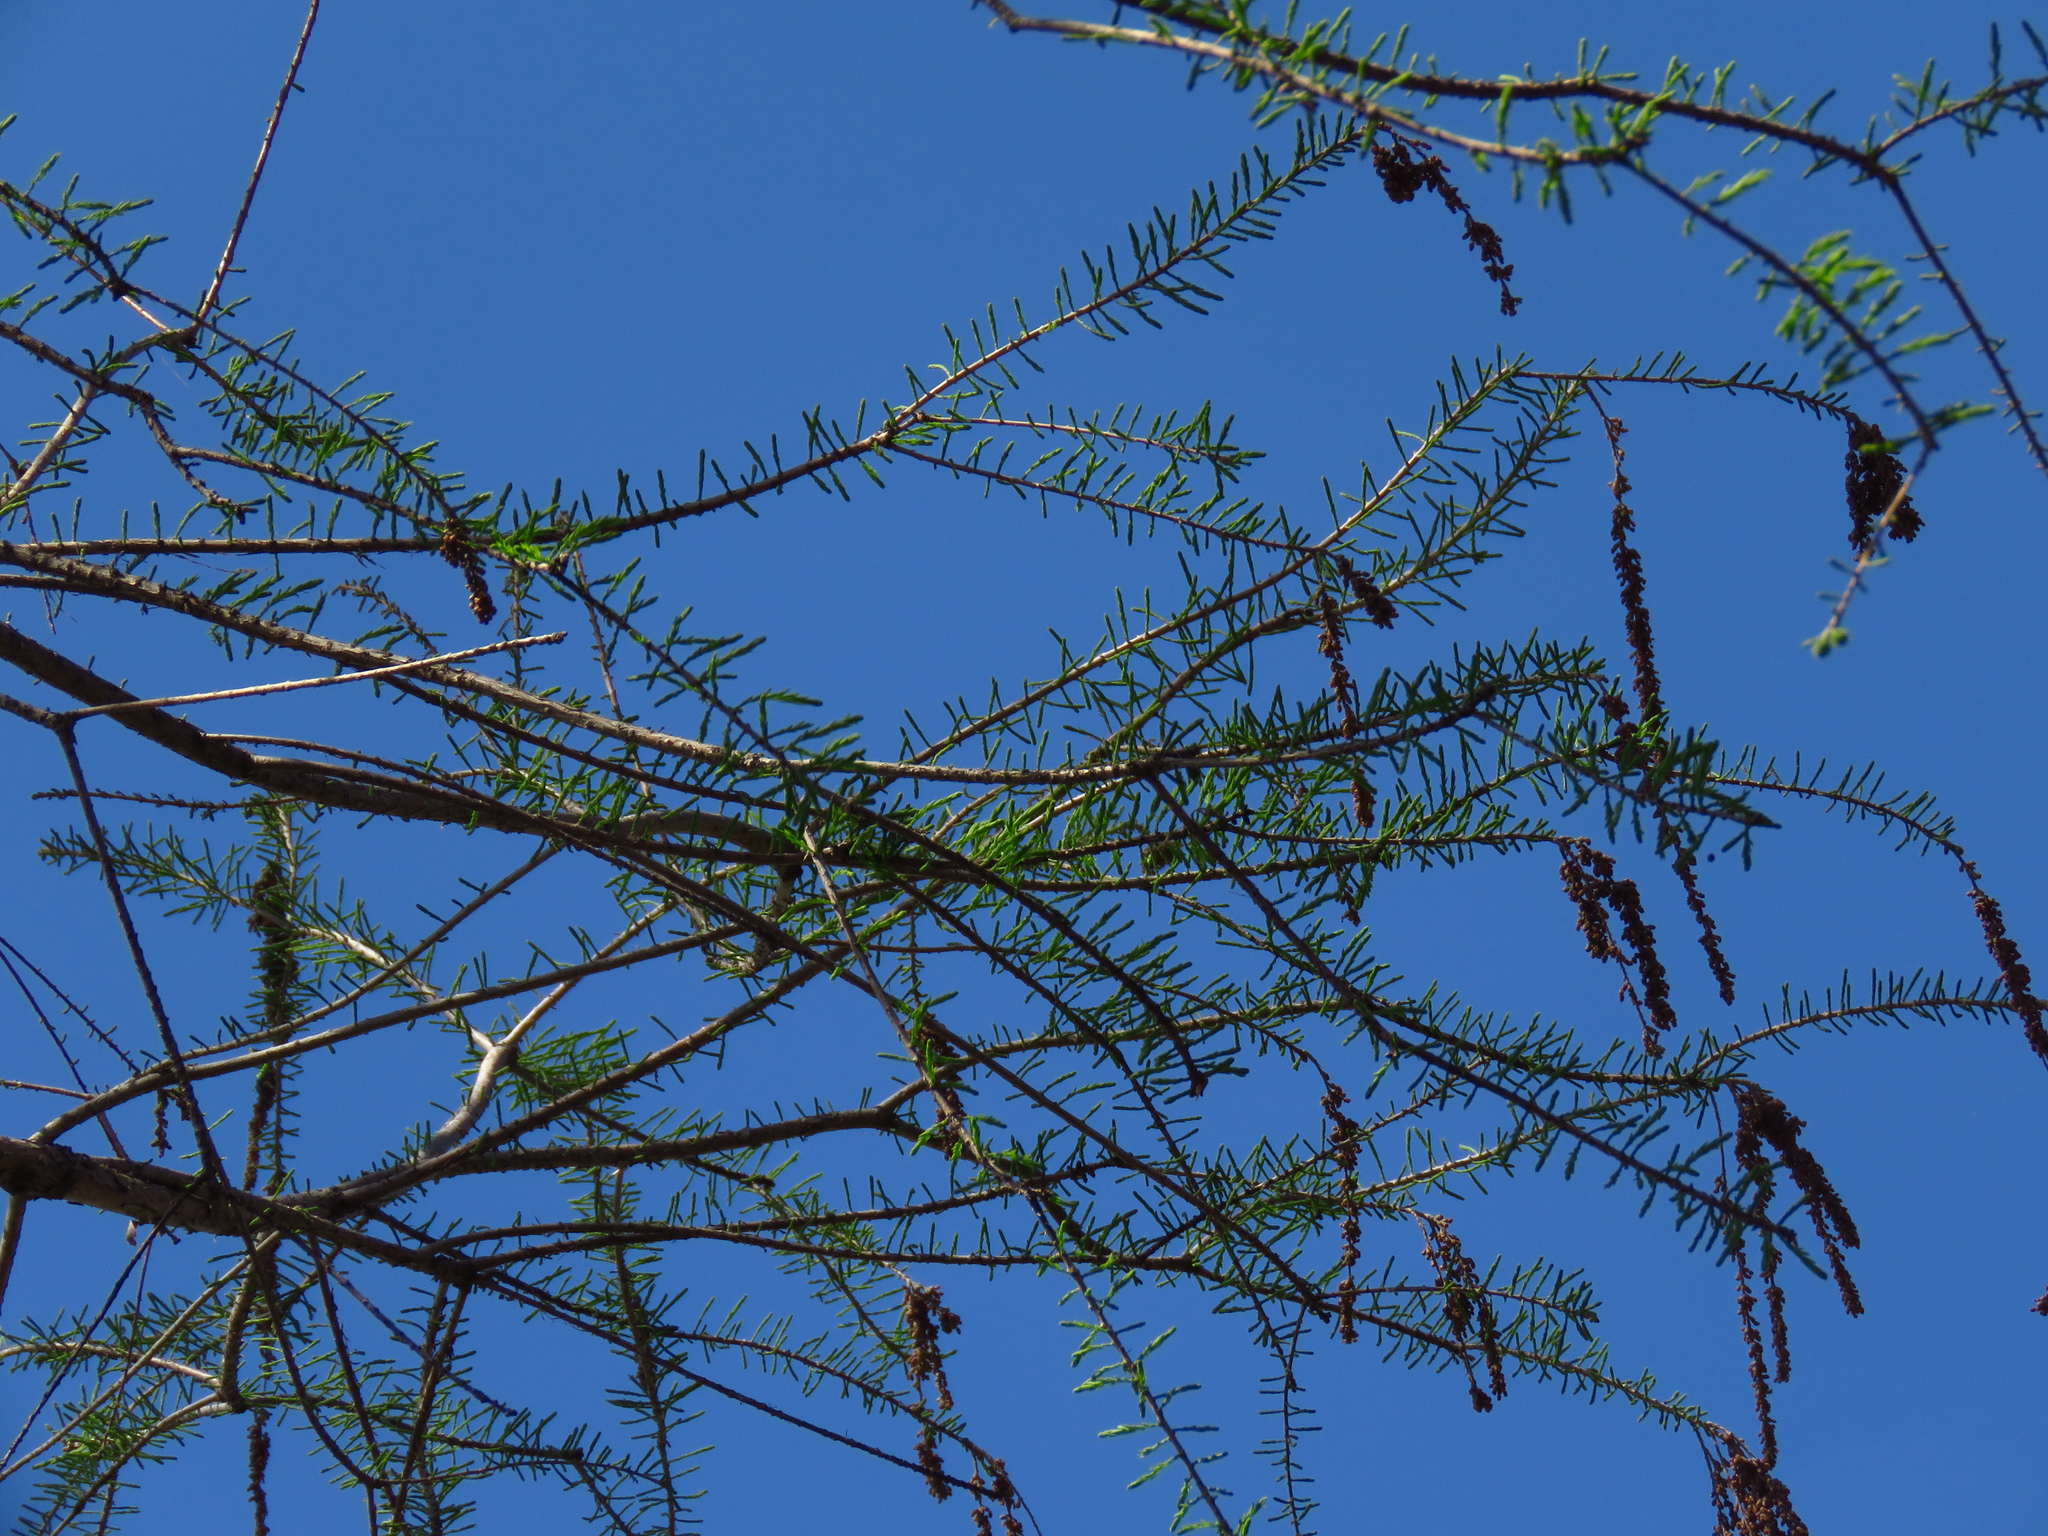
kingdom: Plantae
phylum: Tracheophyta
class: Pinopsida
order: Pinales
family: Cupressaceae
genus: Taxodium
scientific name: Taxodium distichum
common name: Bald cypress
